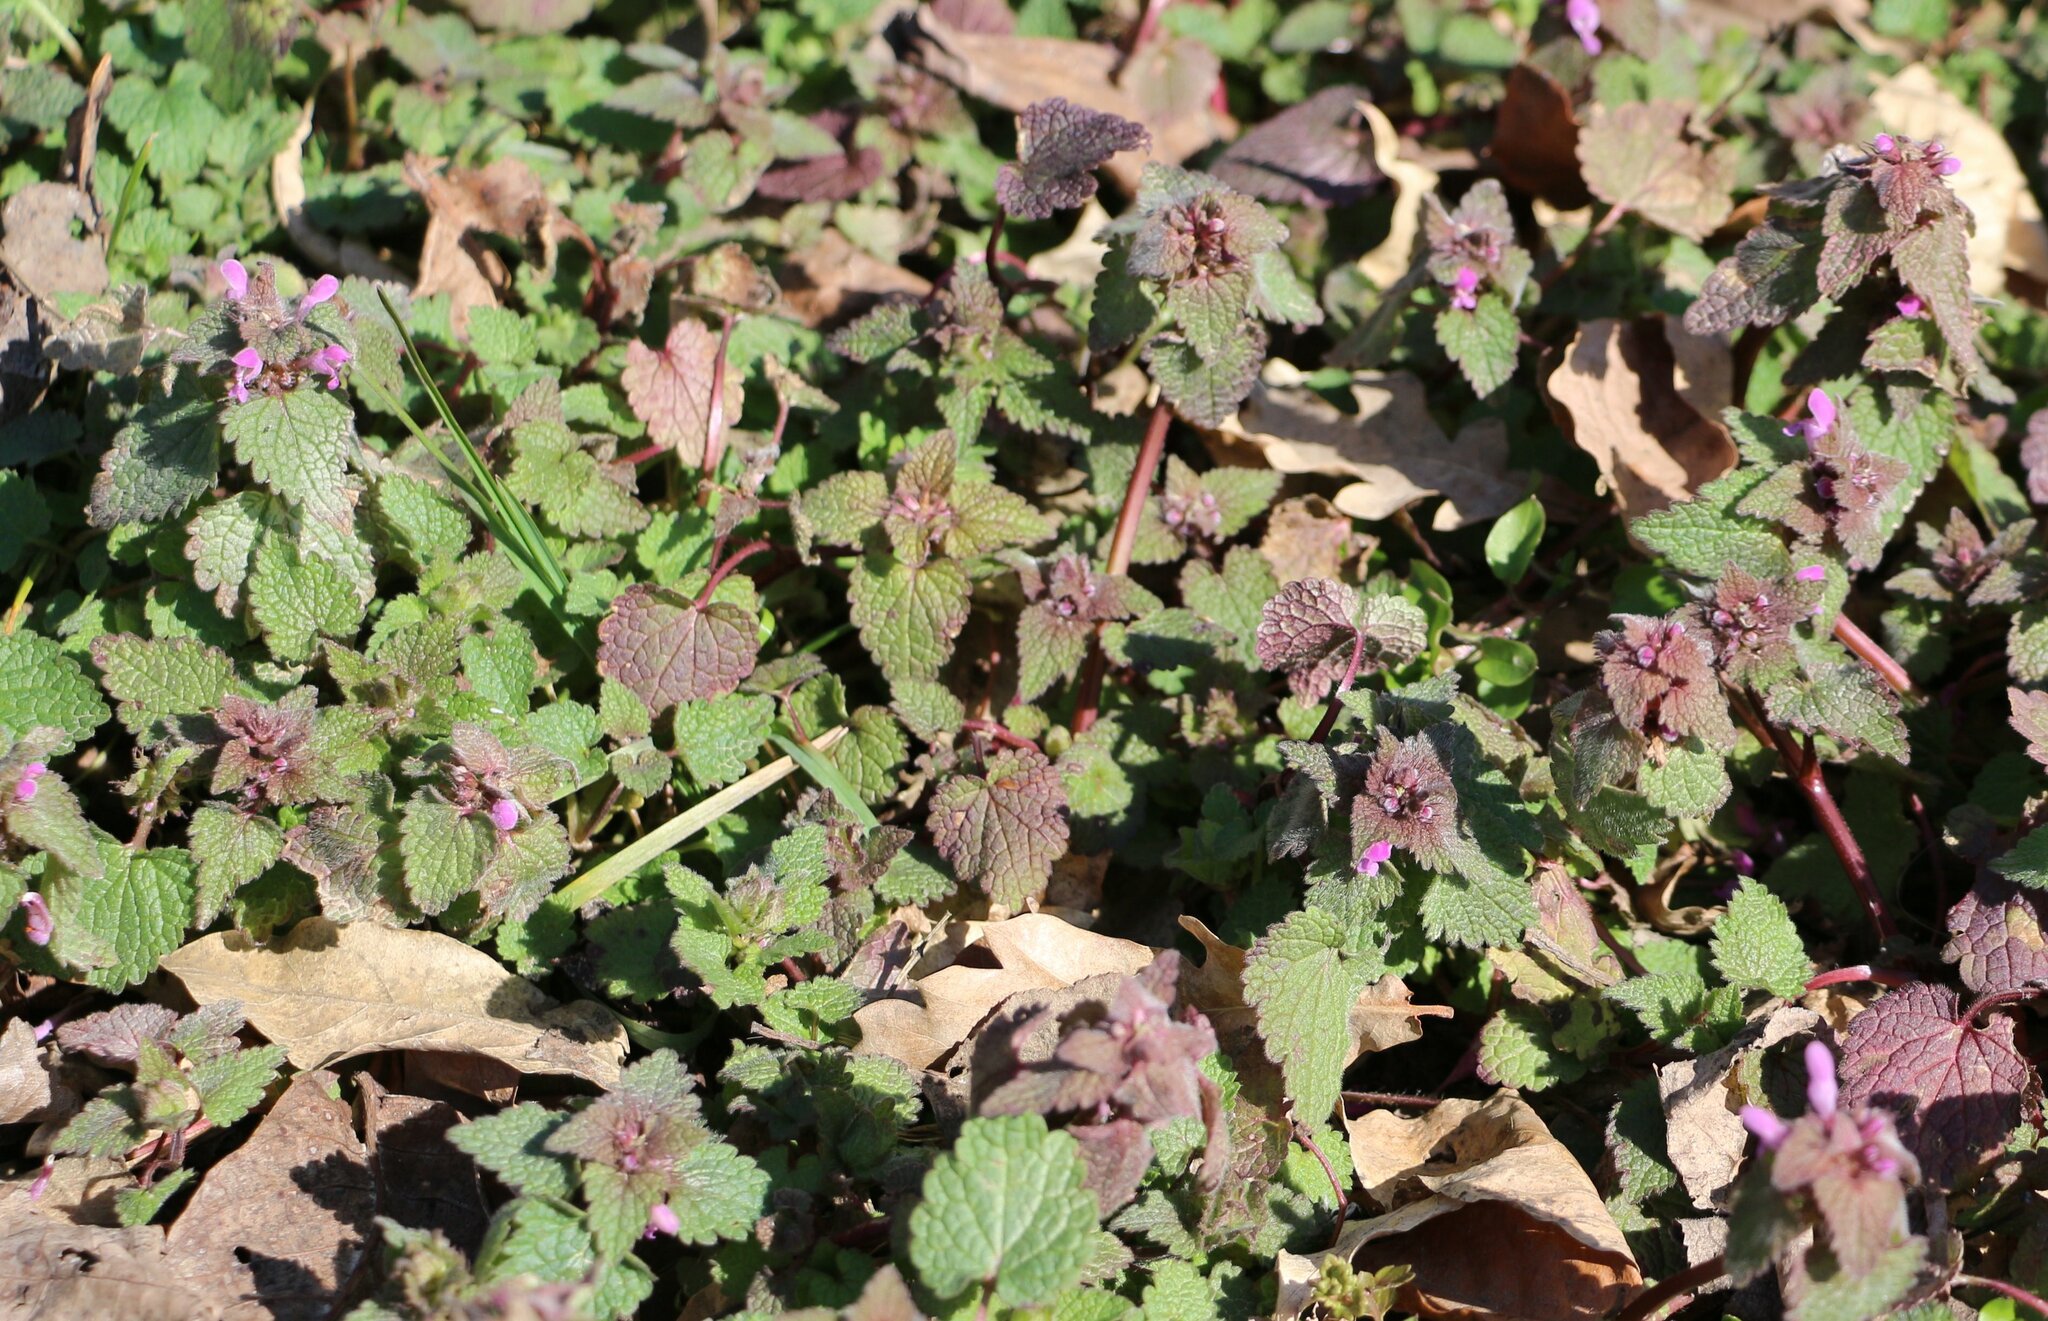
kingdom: Plantae
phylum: Tracheophyta
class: Magnoliopsida
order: Lamiales
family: Lamiaceae
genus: Lamium
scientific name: Lamium purpureum
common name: Red dead-nettle
